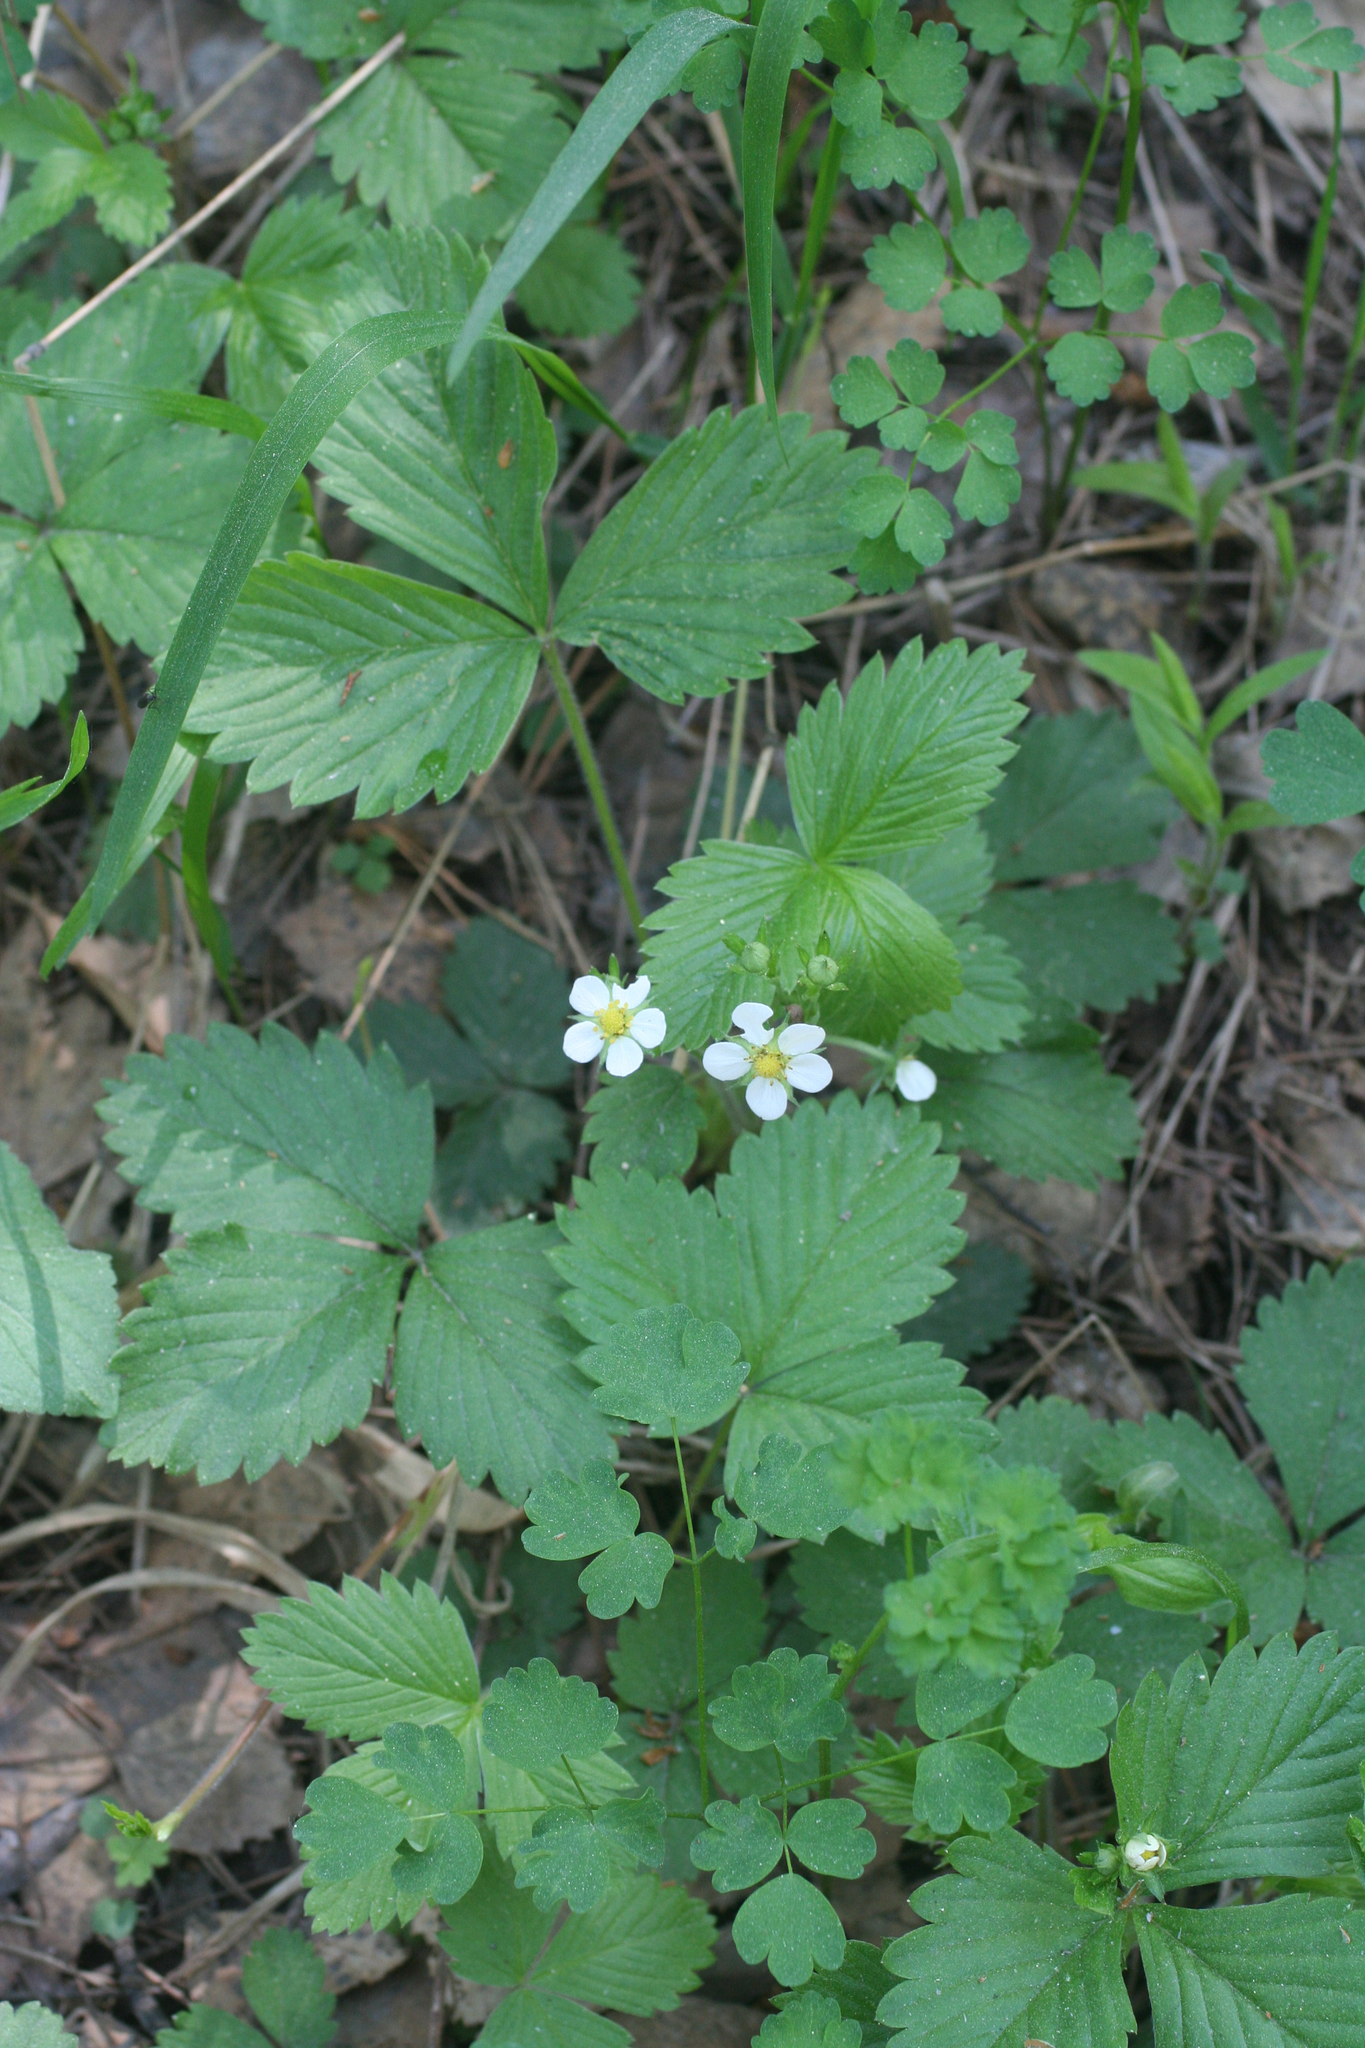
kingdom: Plantae
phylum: Tracheophyta
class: Magnoliopsida
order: Rosales
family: Rosaceae
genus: Fragaria
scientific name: Fragaria vesca
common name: Wild strawberry
